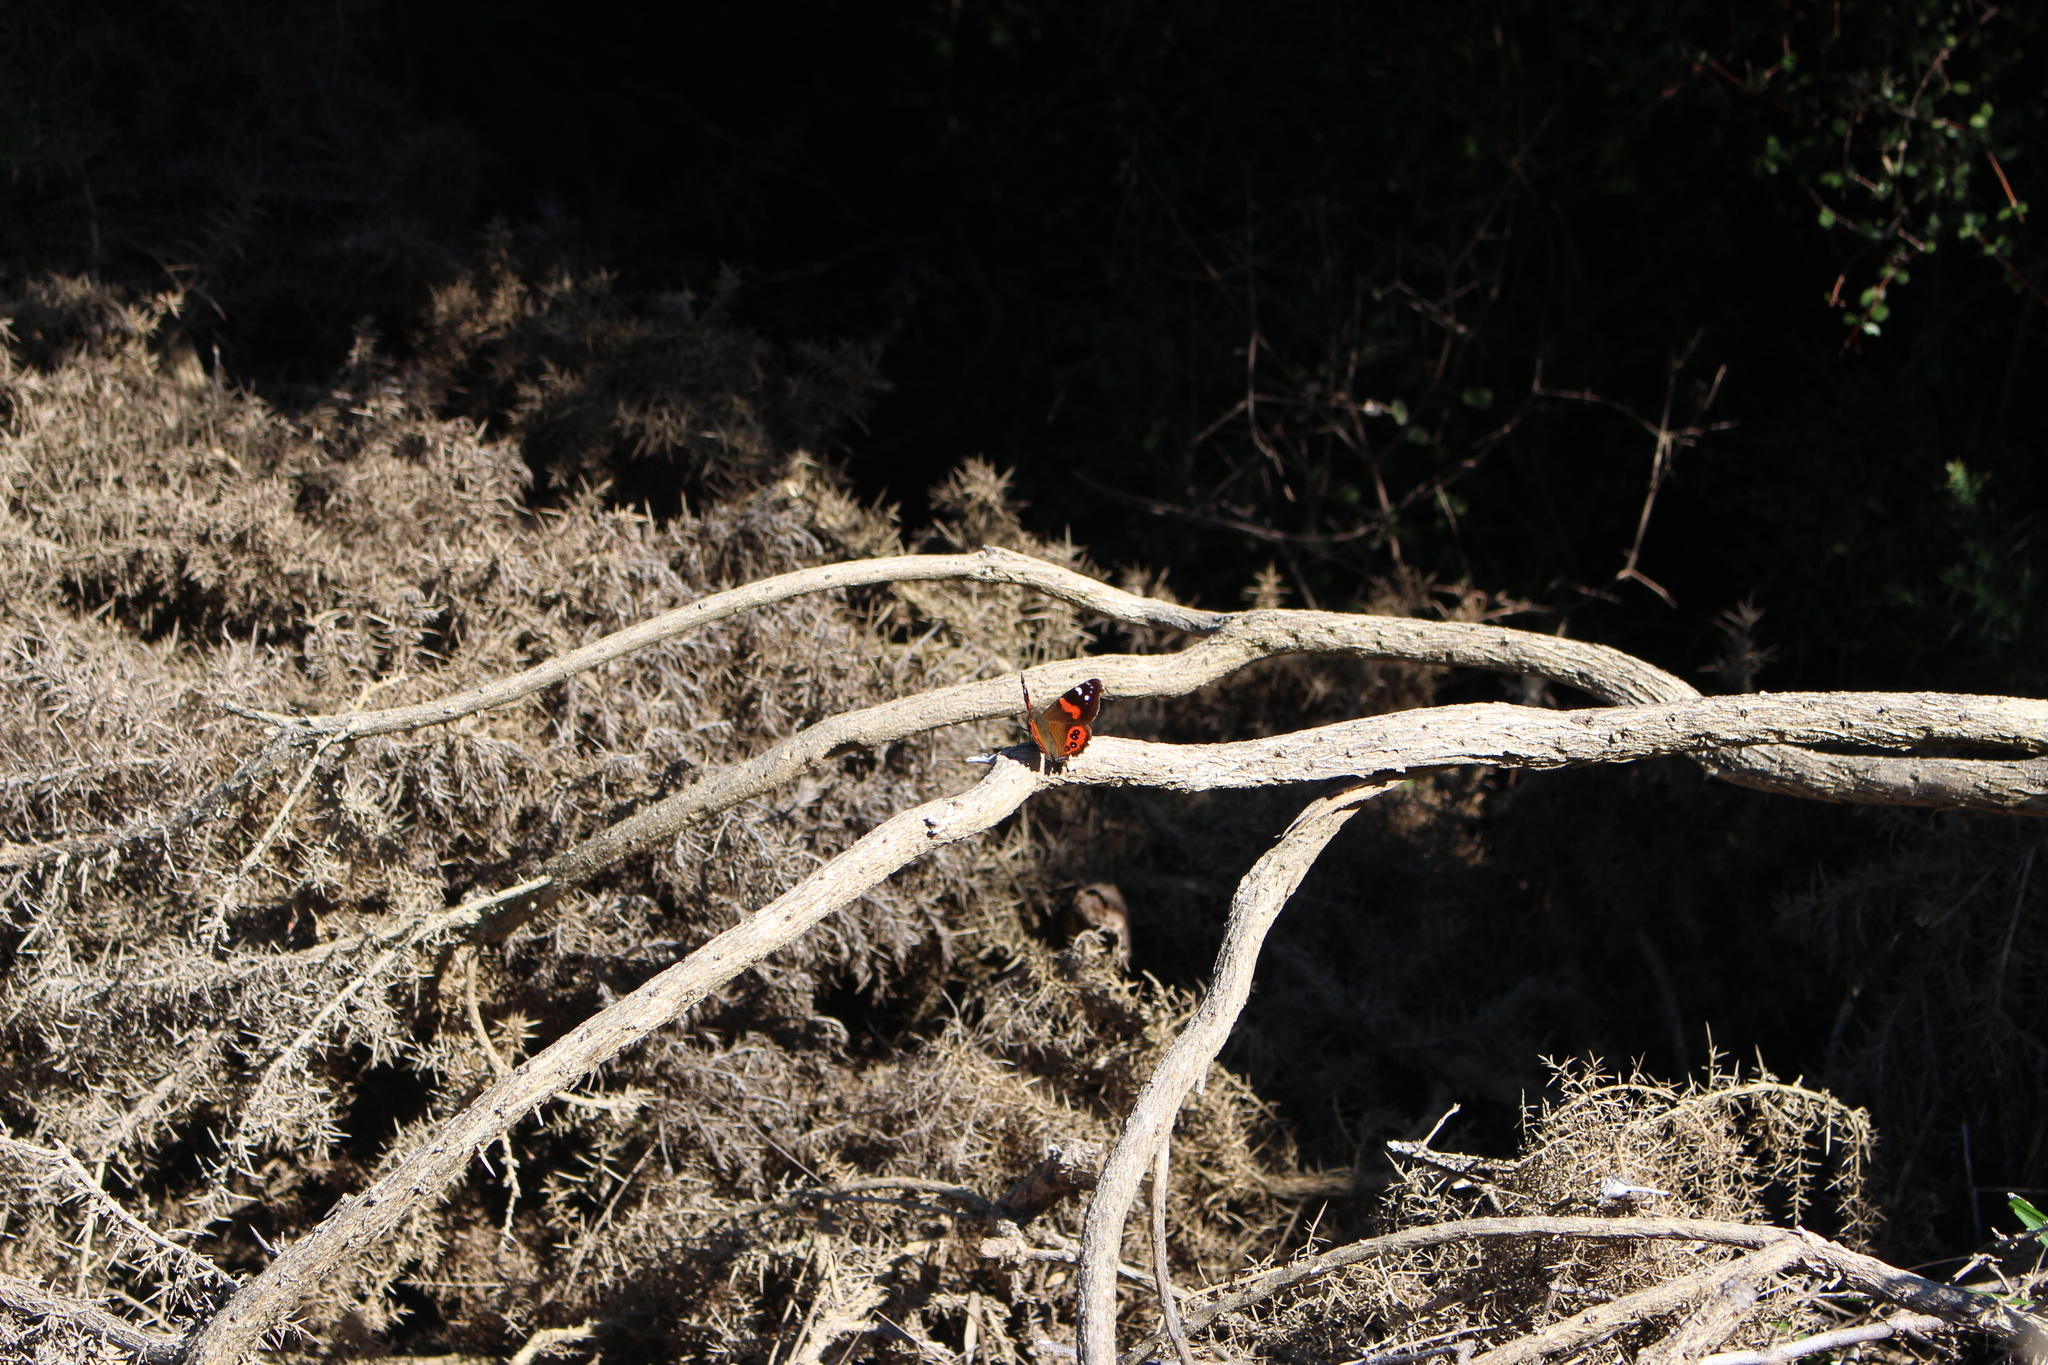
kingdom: Animalia
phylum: Arthropoda
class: Insecta
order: Lepidoptera
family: Nymphalidae
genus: Vanessa
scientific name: Vanessa gonerilla
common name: New zealand red admiral
